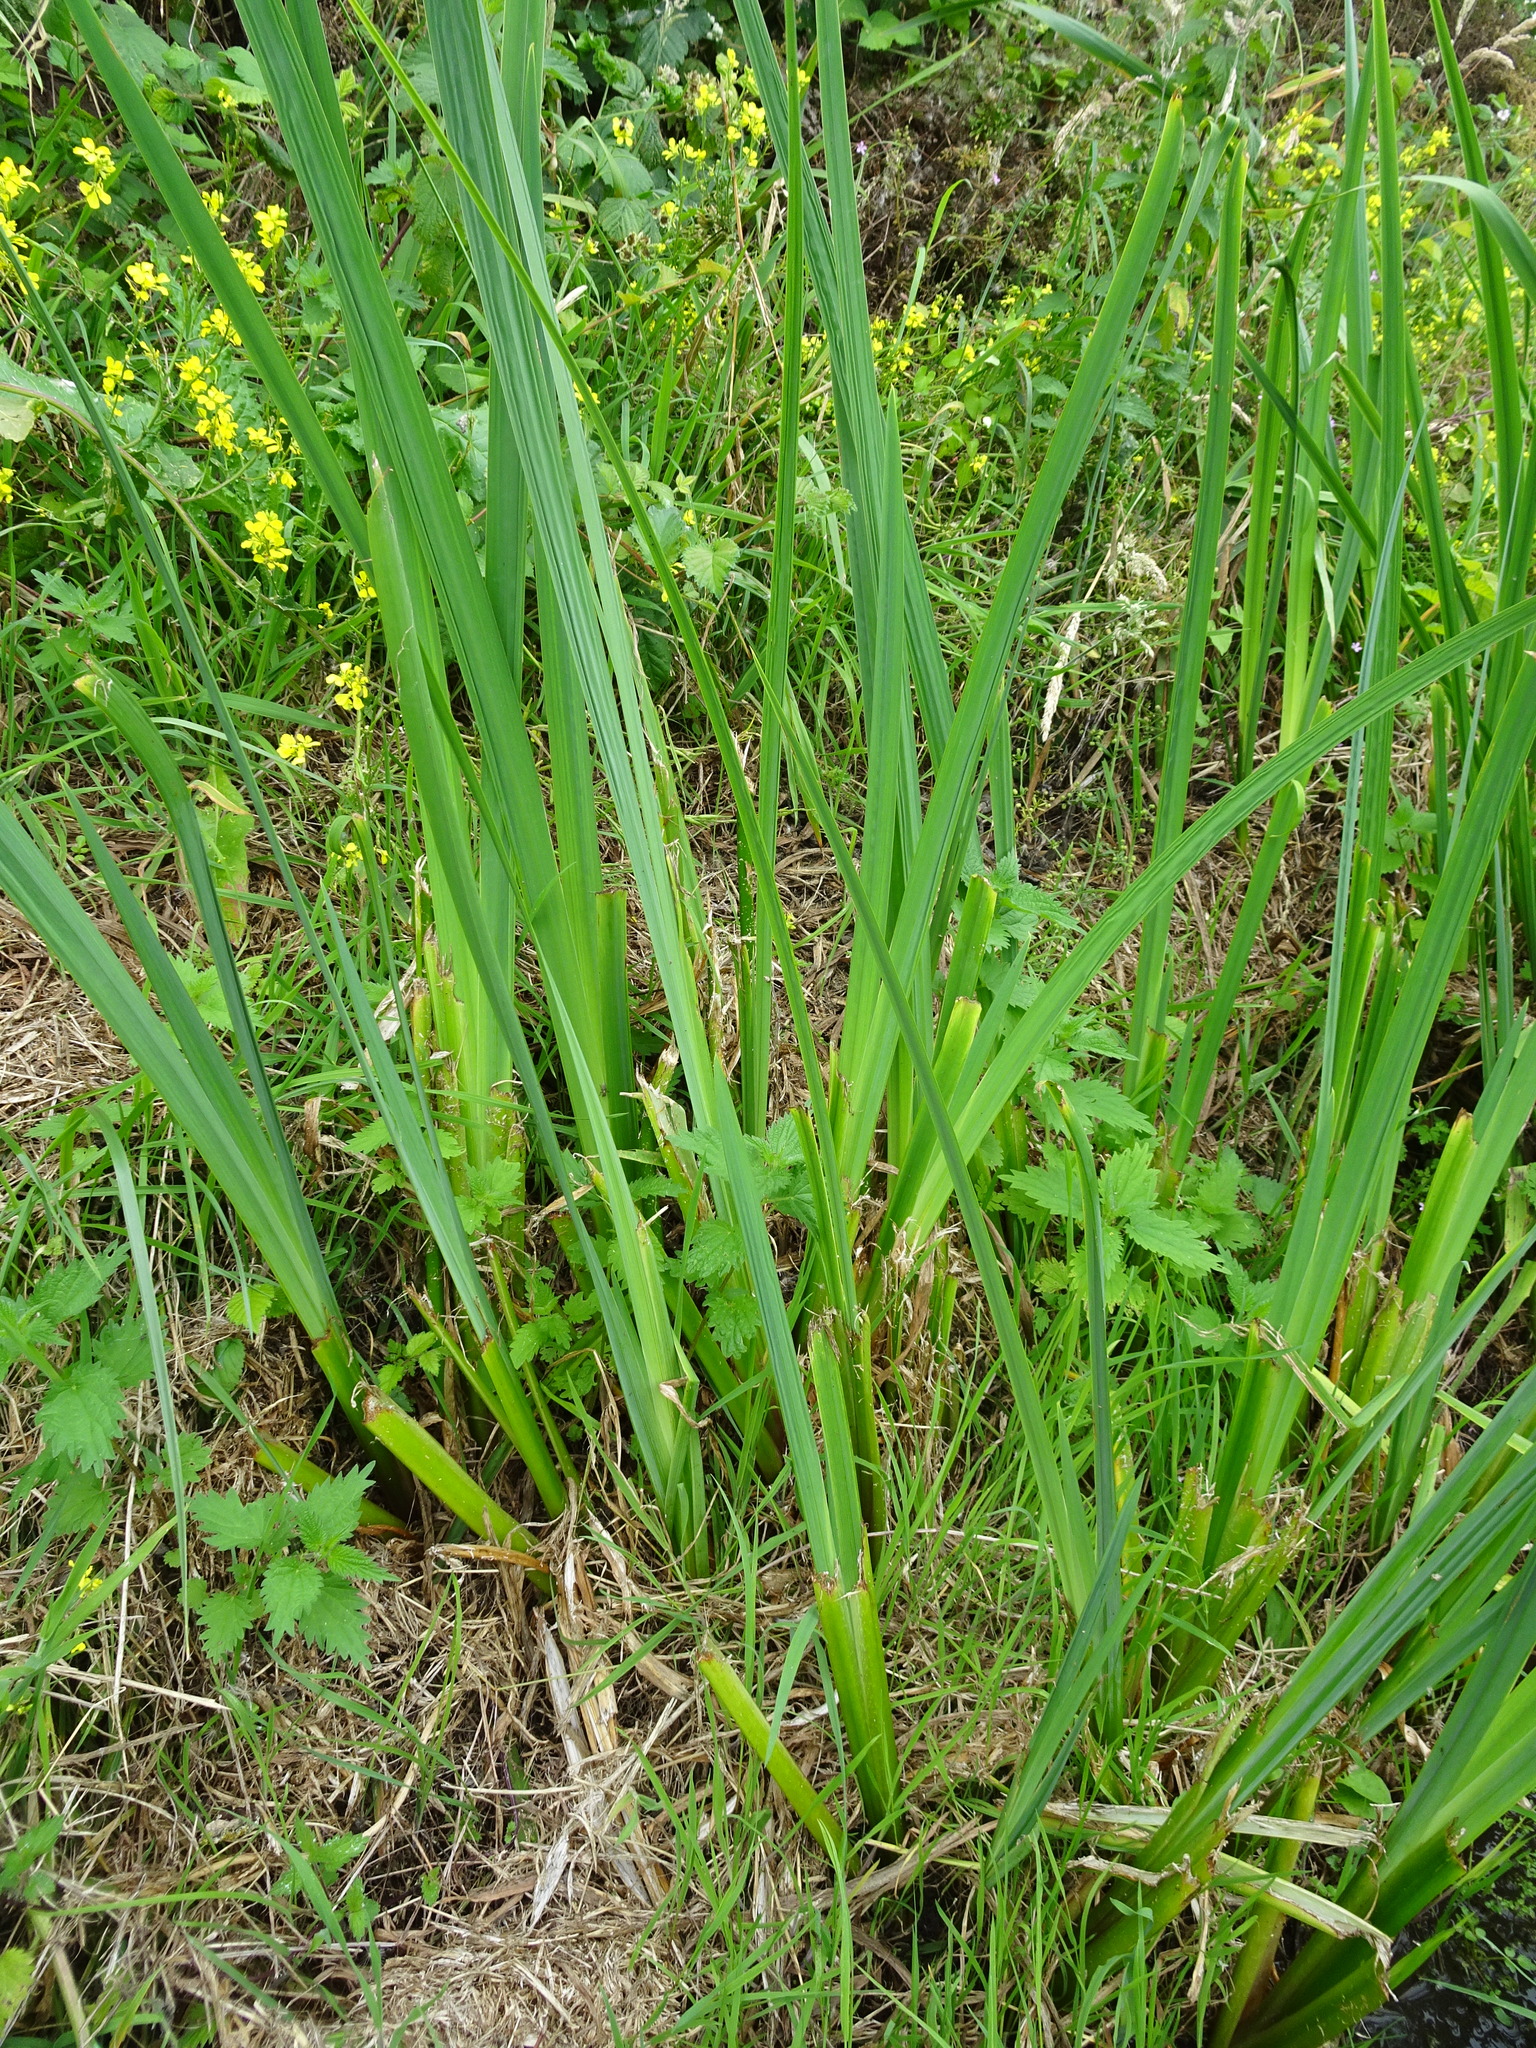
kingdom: Plantae
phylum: Tracheophyta
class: Liliopsida
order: Asparagales
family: Iridaceae
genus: Iris
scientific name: Iris pseudacorus
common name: Yellow flag
